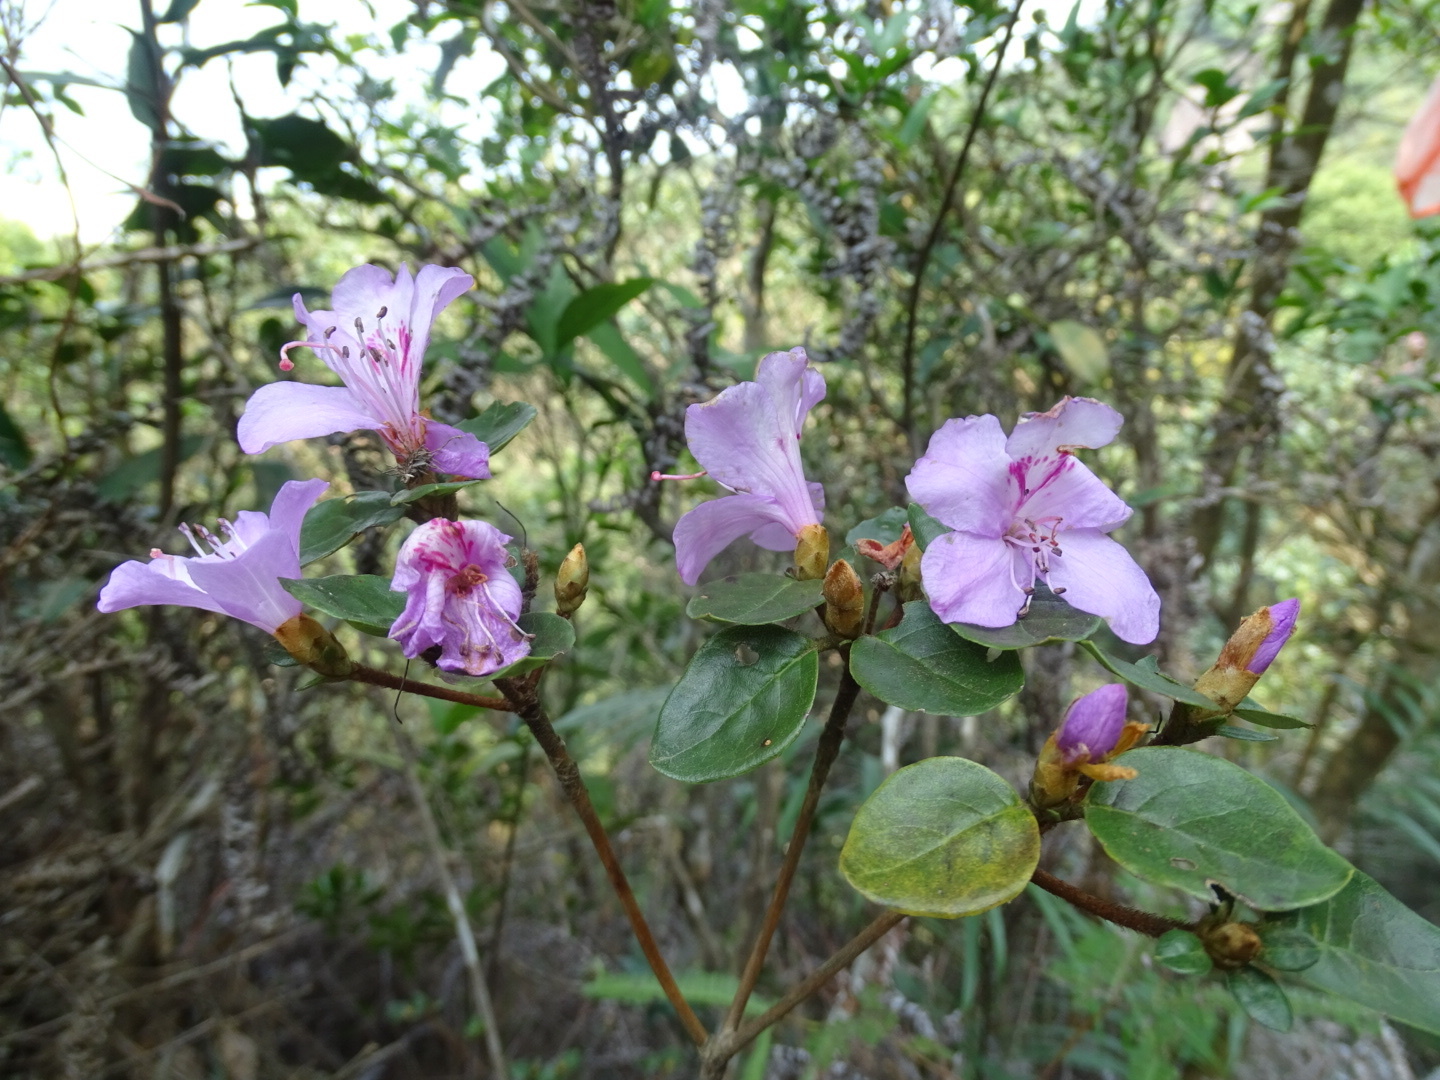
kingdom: Plantae
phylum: Tracheophyta
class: Magnoliopsida
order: Ericales
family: Ericaceae
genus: Rhododendron
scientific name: Rhododendron farrerae
